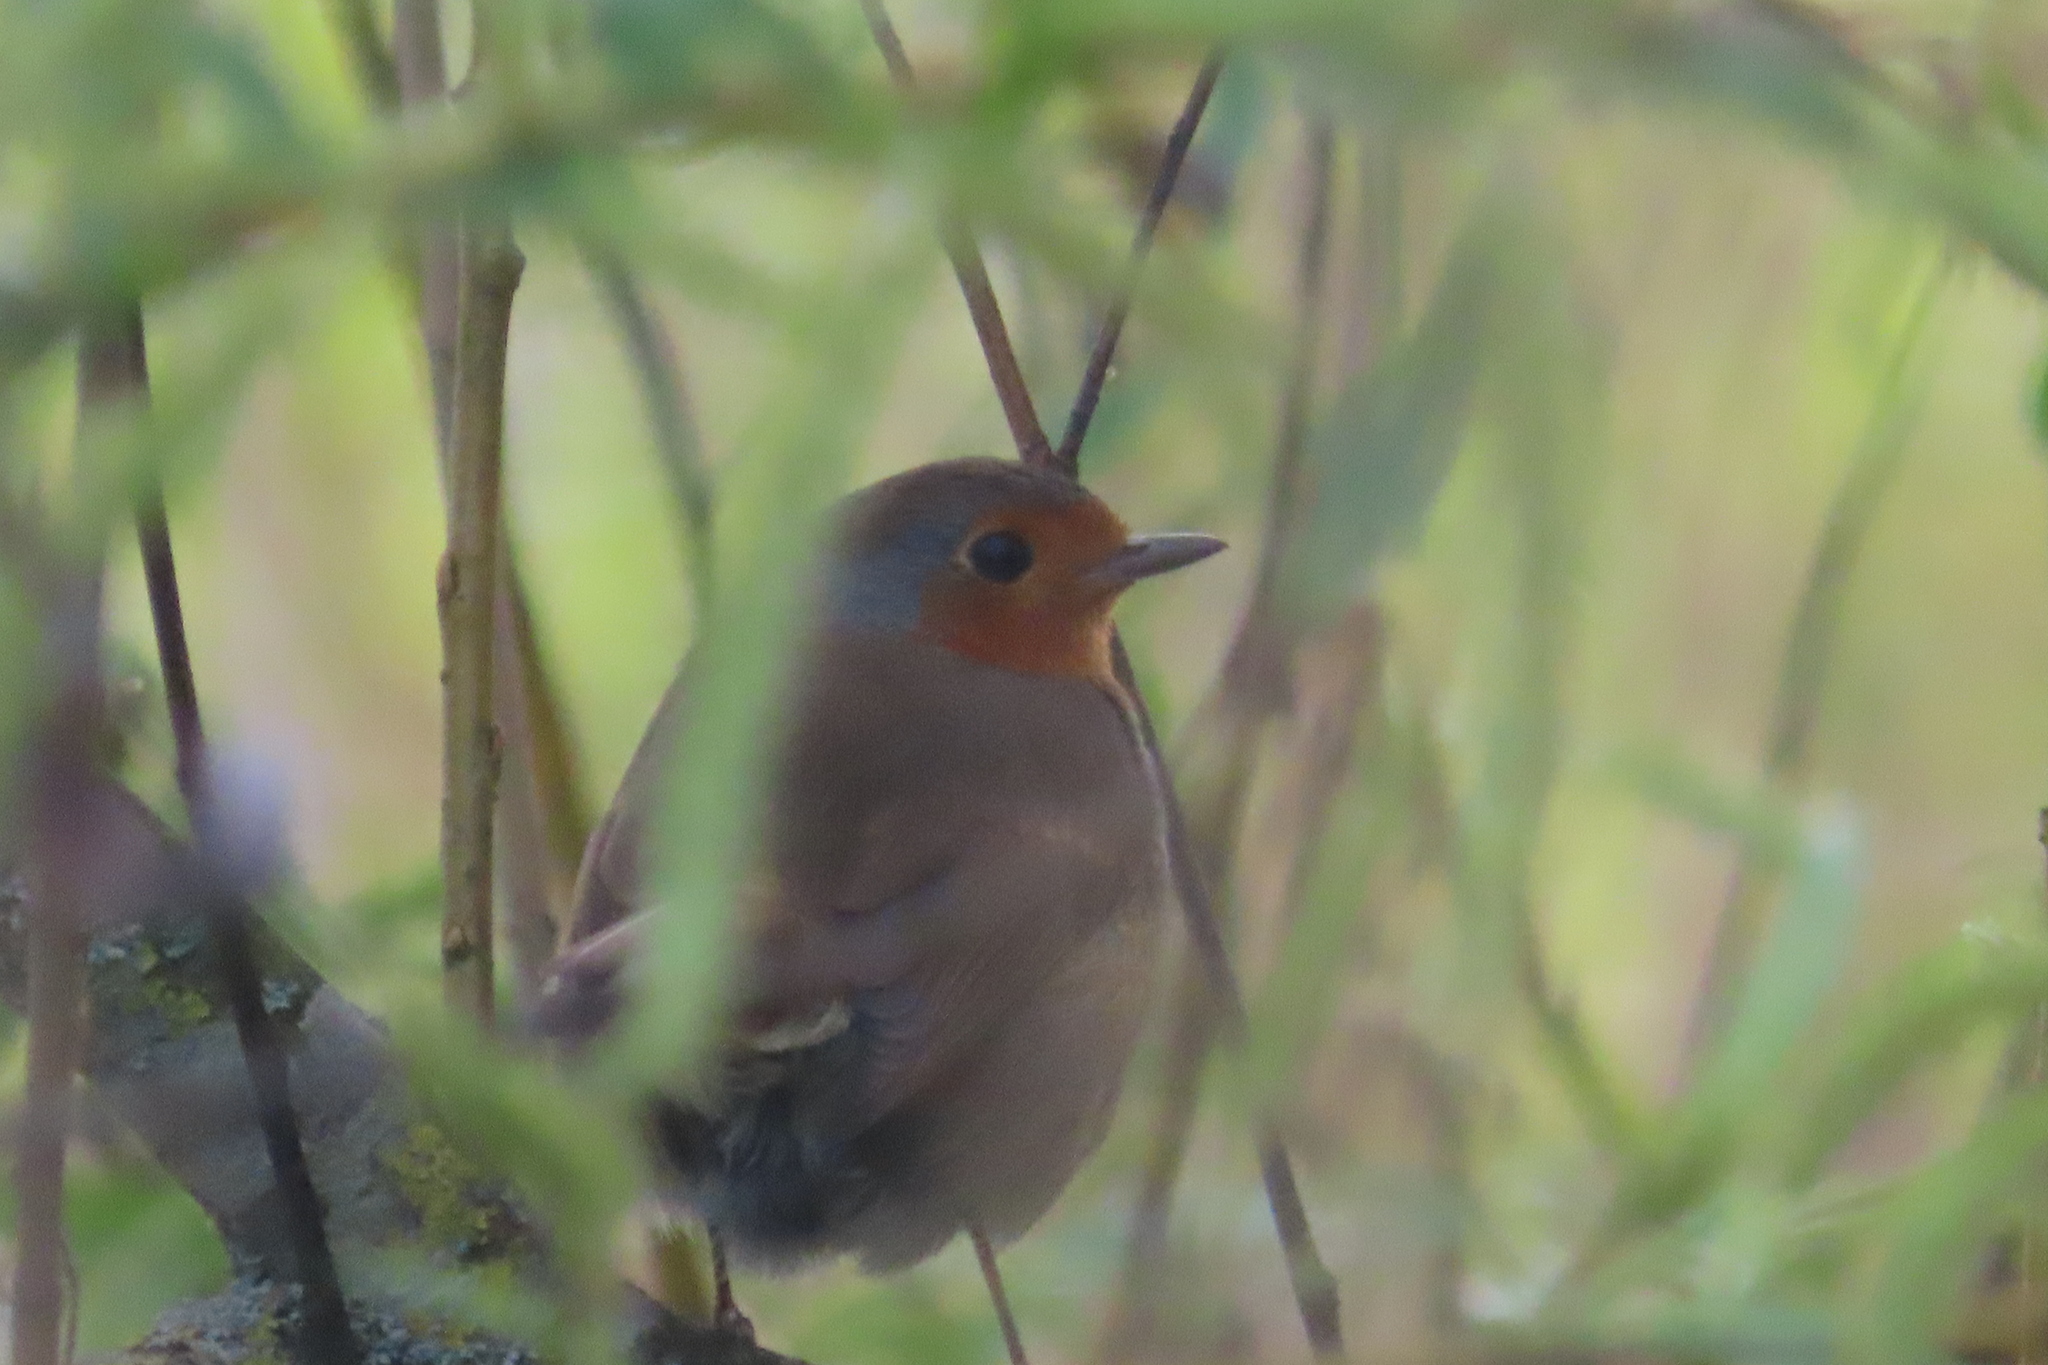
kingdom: Animalia
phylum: Chordata
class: Aves
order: Passeriformes
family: Muscicapidae
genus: Erithacus
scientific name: Erithacus rubecula
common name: European robin
